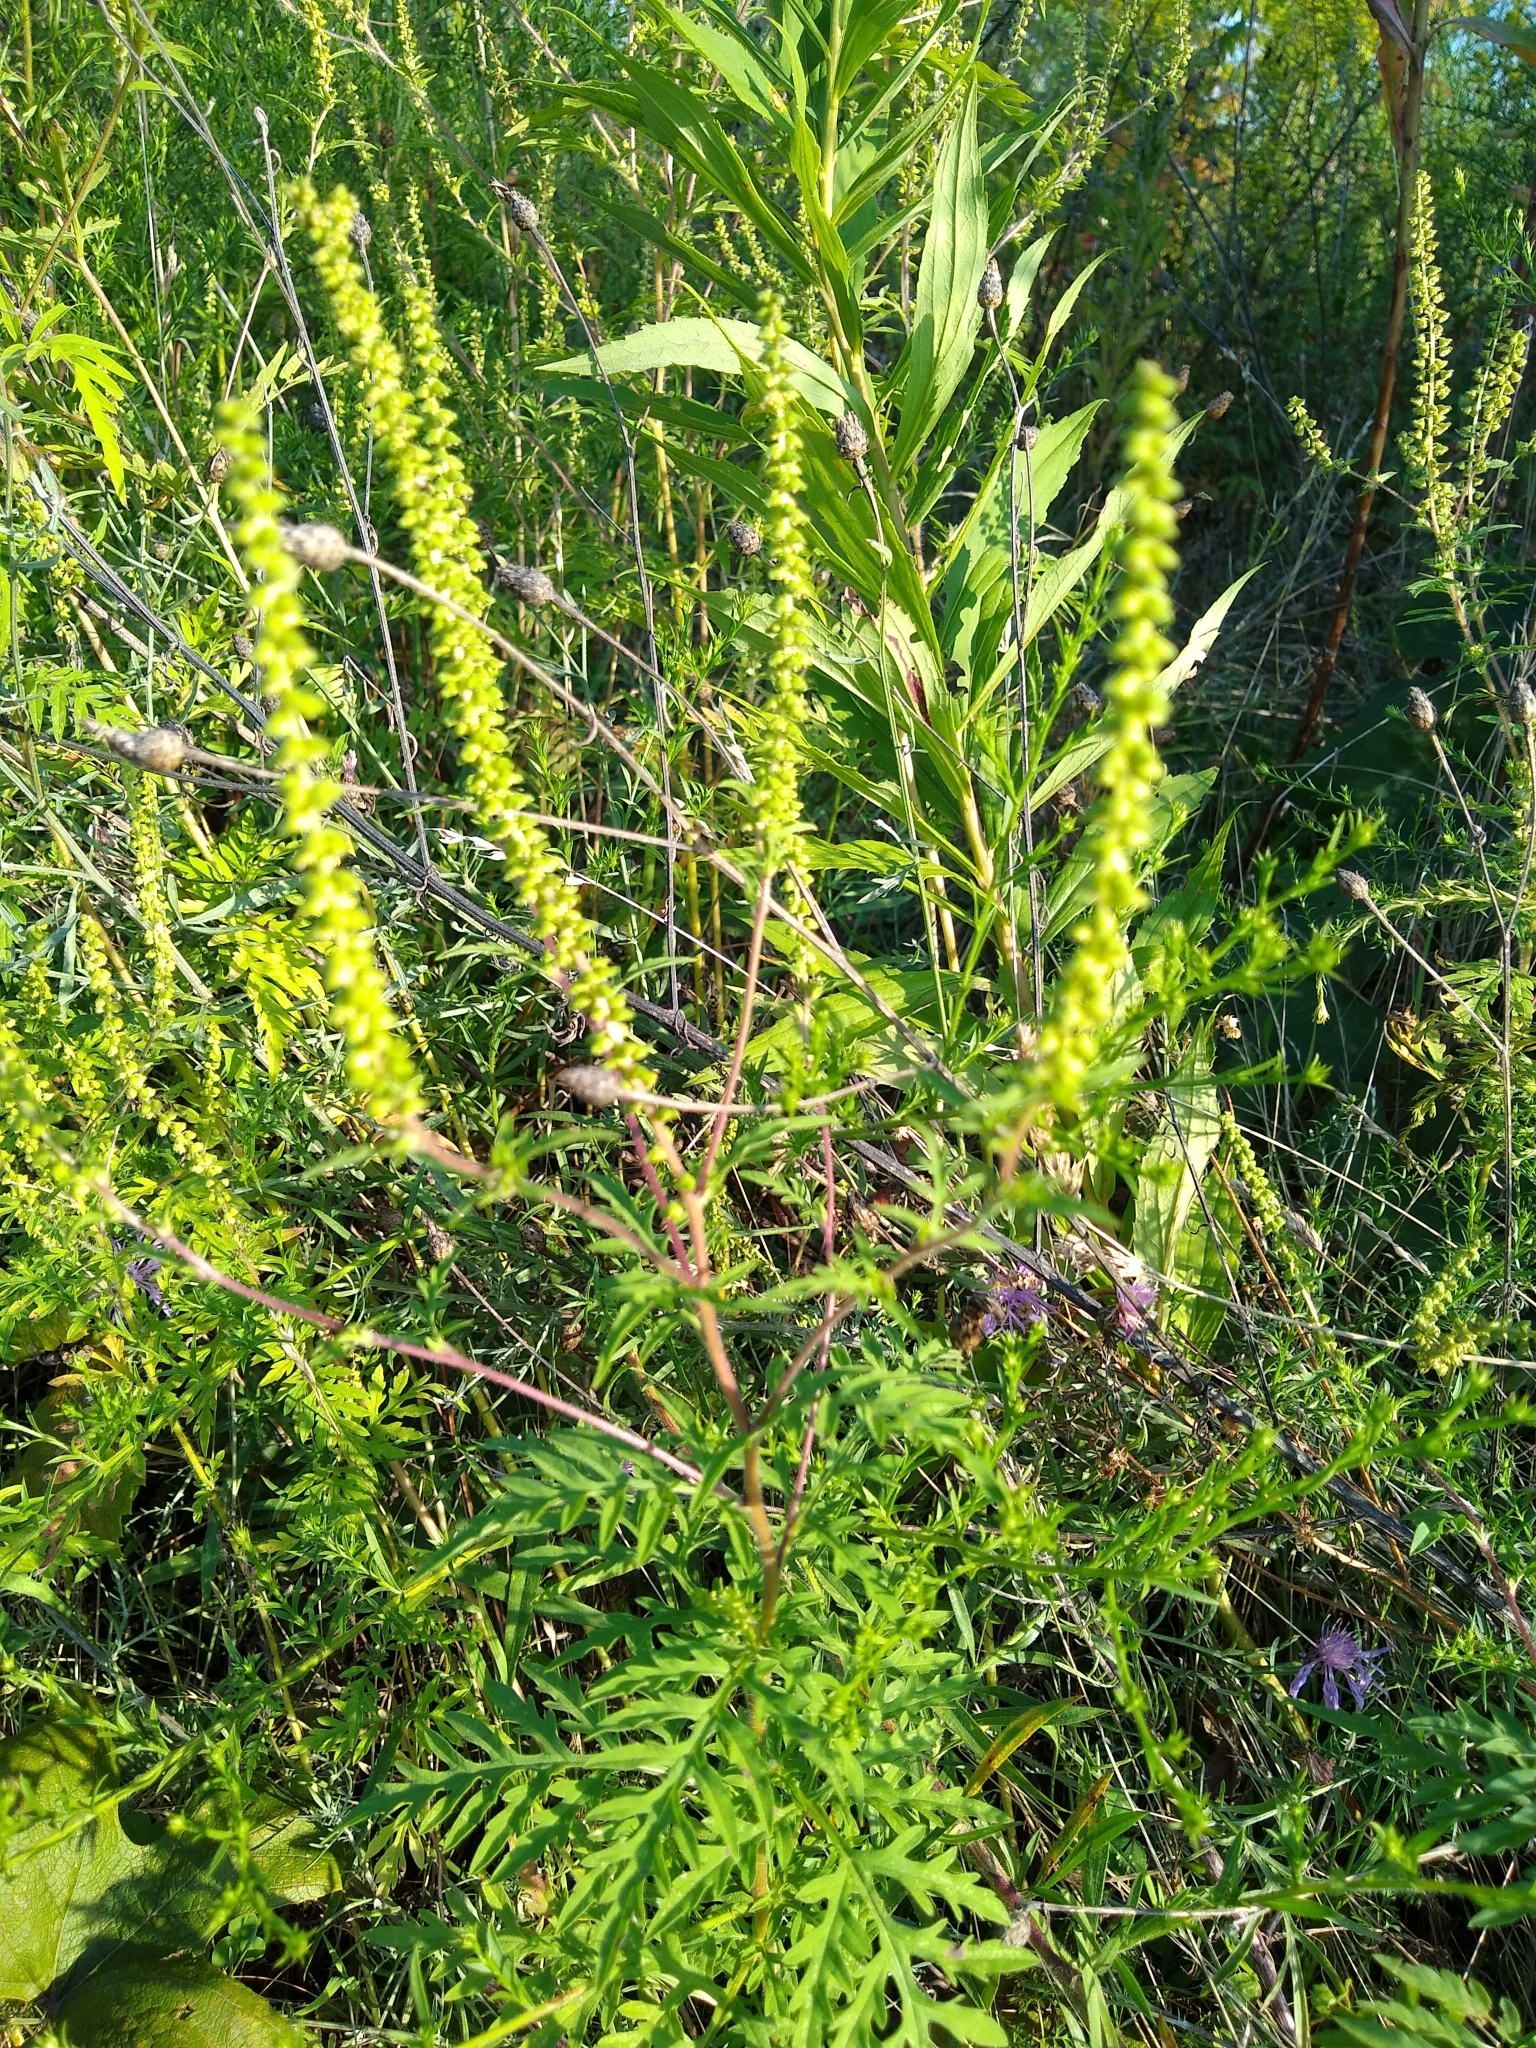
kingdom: Plantae
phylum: Tracheophyta
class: Magnoliopsida
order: Asterales
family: Asteraceae
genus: Ambrosia
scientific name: Ambrosia artemisiifolia
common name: Annual ragweed
